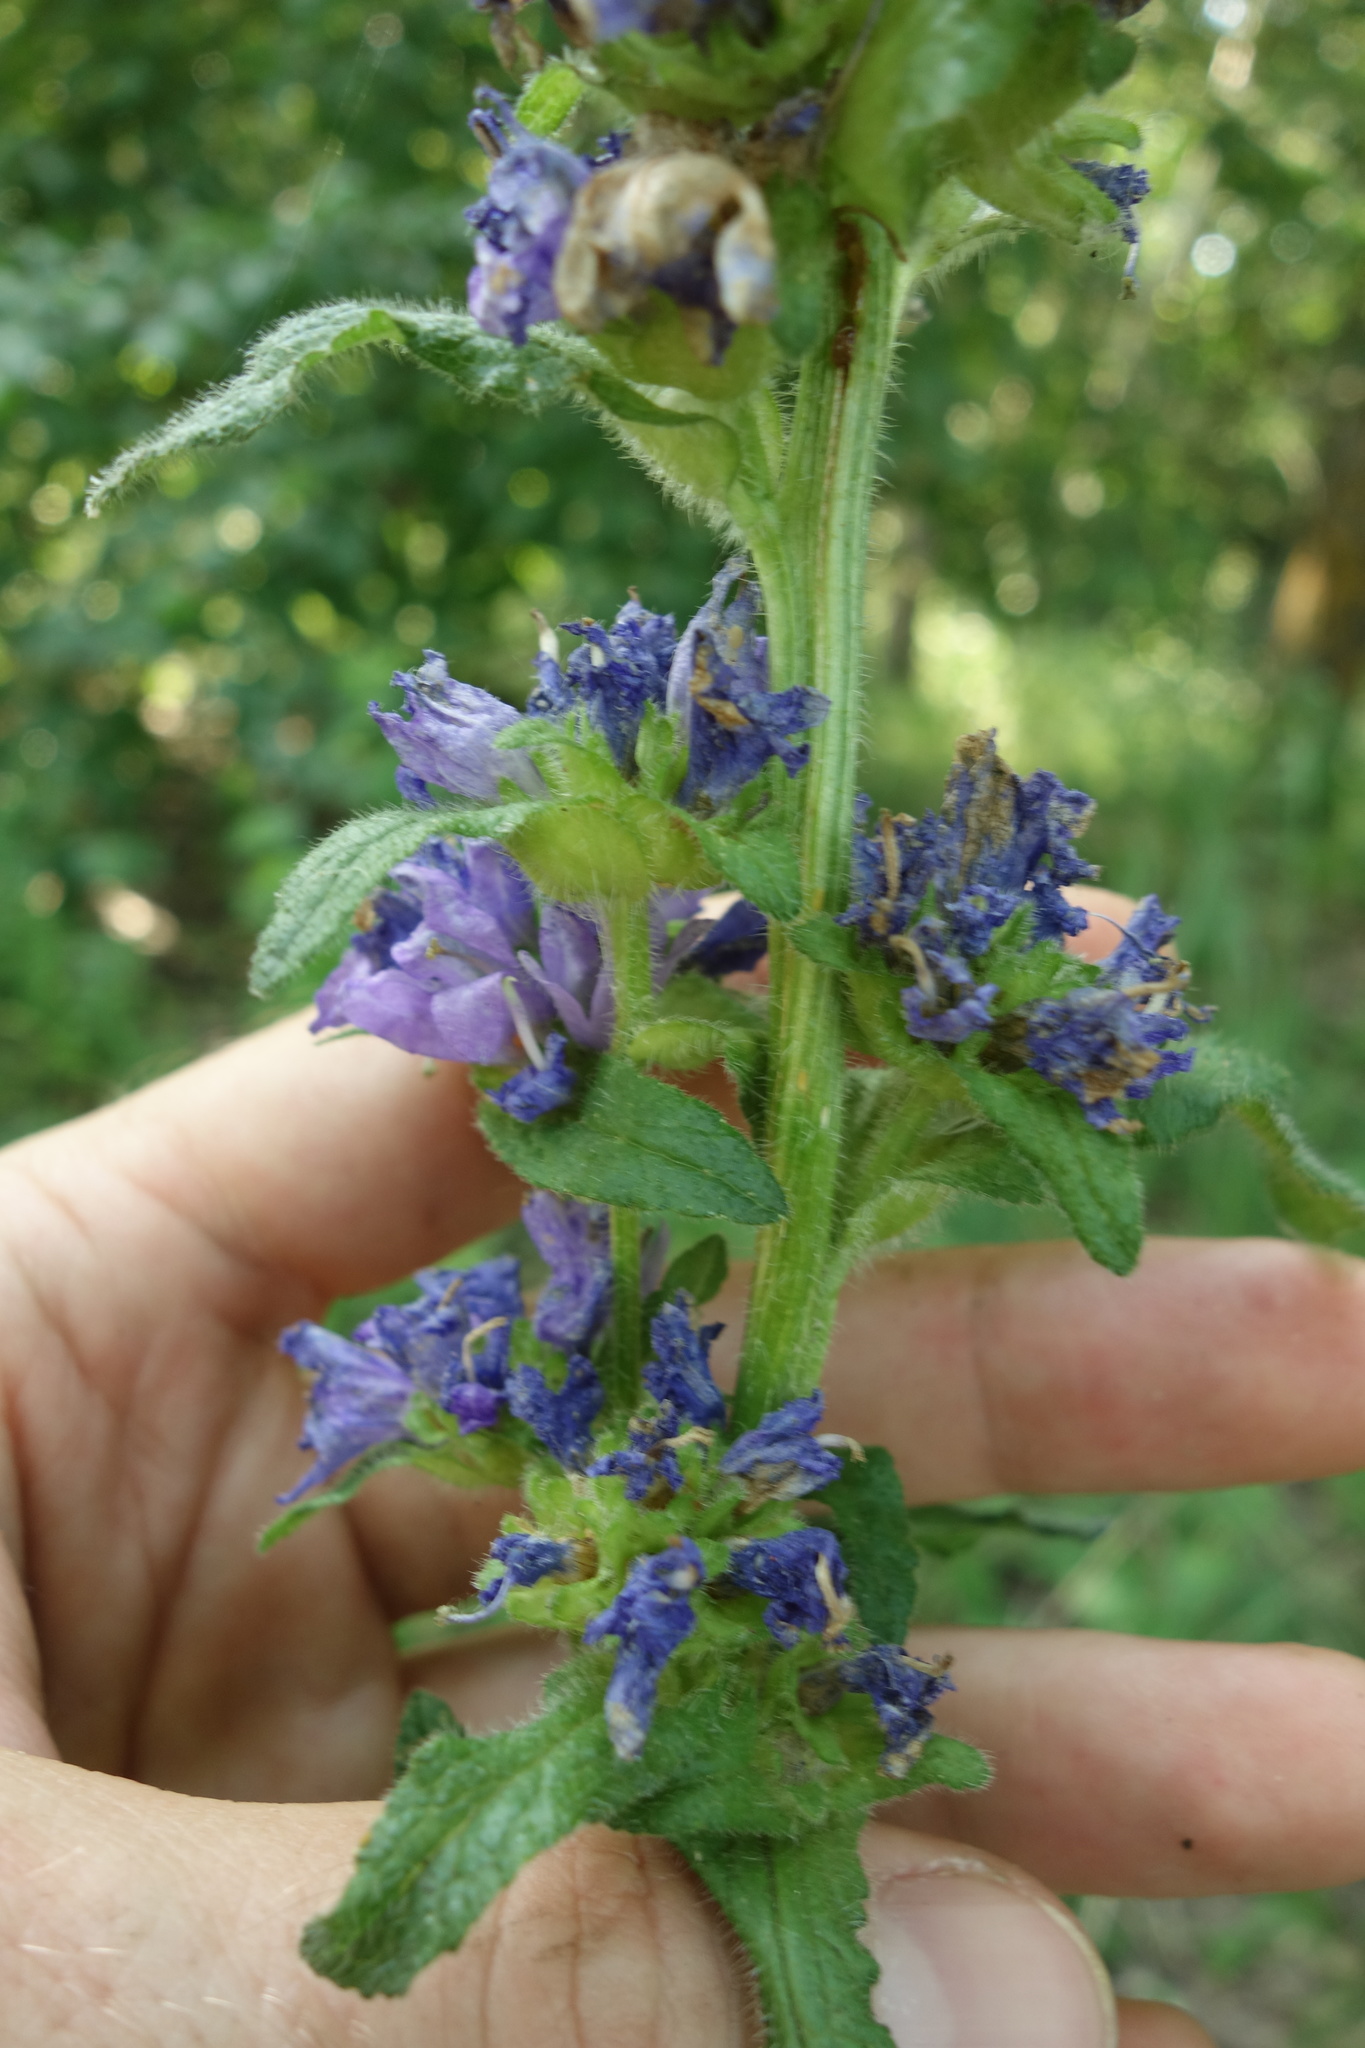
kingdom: Plantae
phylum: Tracheophyta
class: Magnoliopsida
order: Asterales
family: Campanulaceae
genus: Campanula
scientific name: Campanula cervicaria
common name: Bristly bellflower
